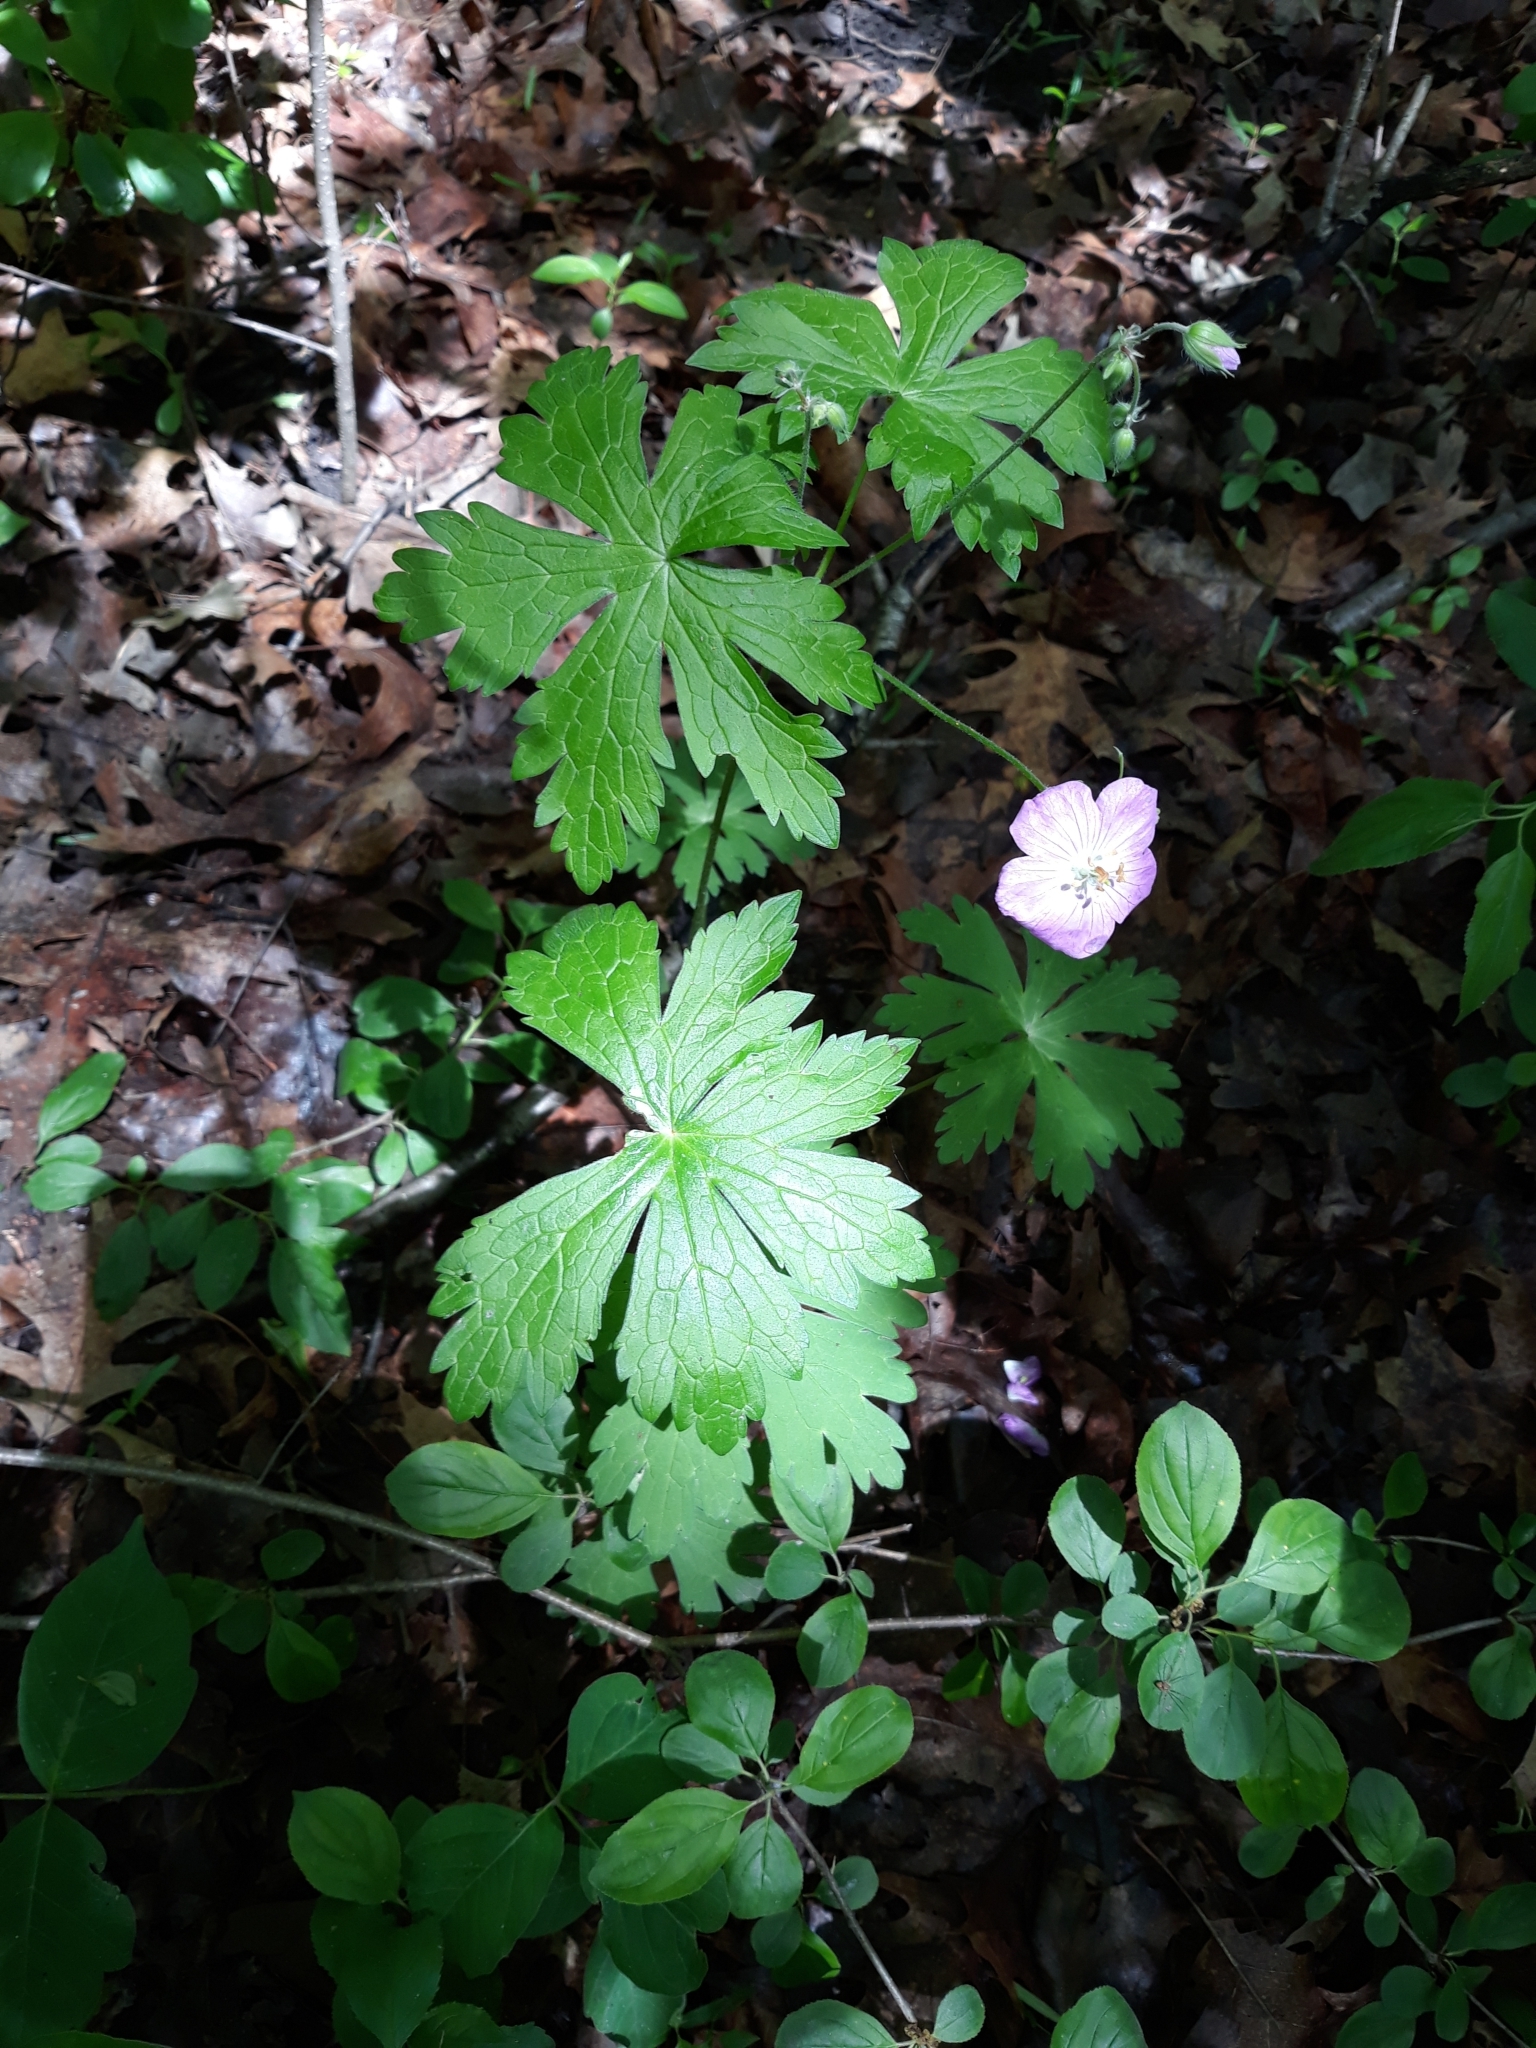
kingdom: Plantae
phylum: Tracheophyta
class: Magnoliopsida
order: Geraniales
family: Geraniaceae
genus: Geranium
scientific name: Geranium maculatum
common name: Spotted geranium
